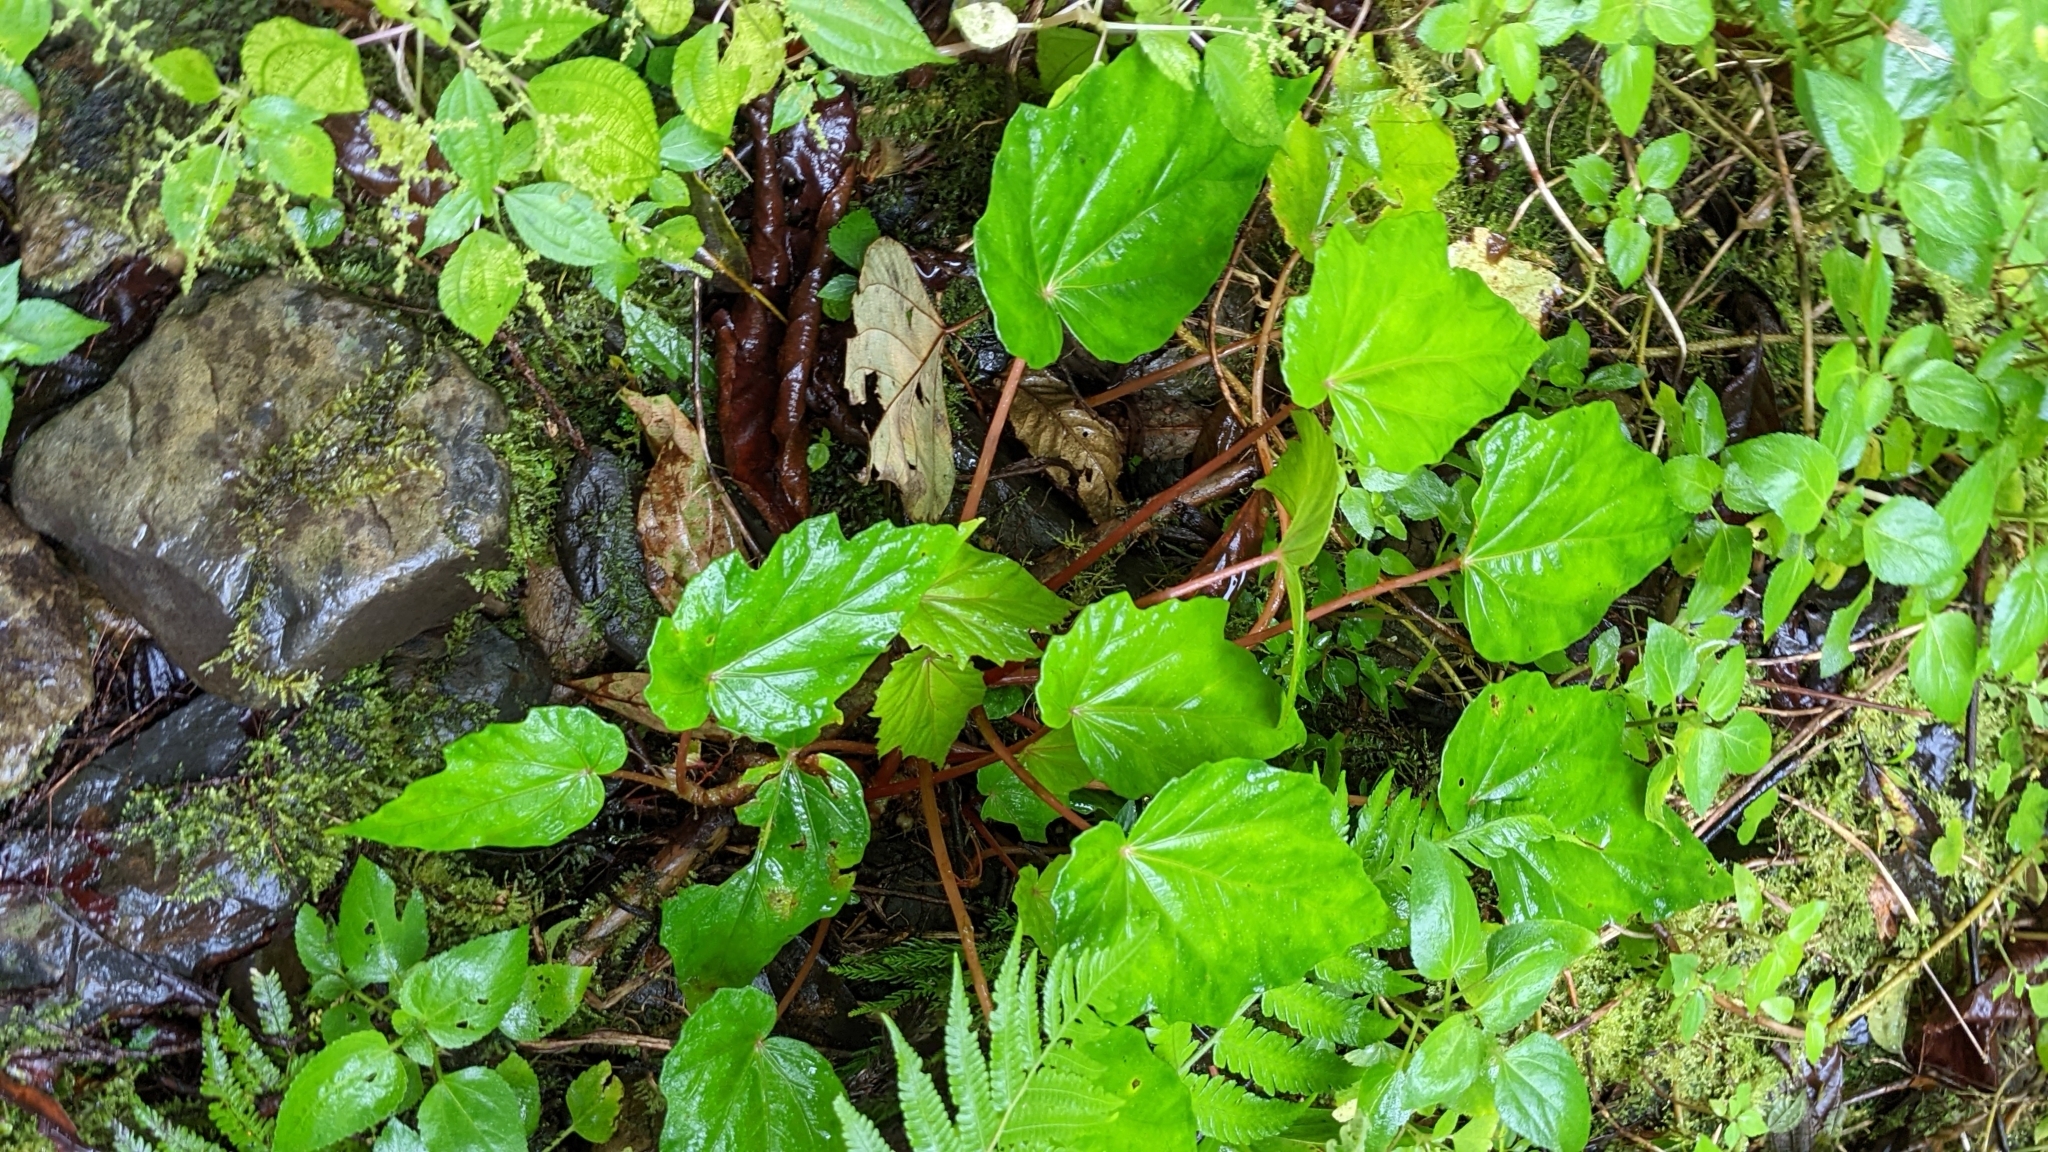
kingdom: Plantae
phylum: Tracheophyta
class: Magnoliopsida
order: Cucurbitales
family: Begoniaceae
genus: Begonia
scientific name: Begonia formosana
